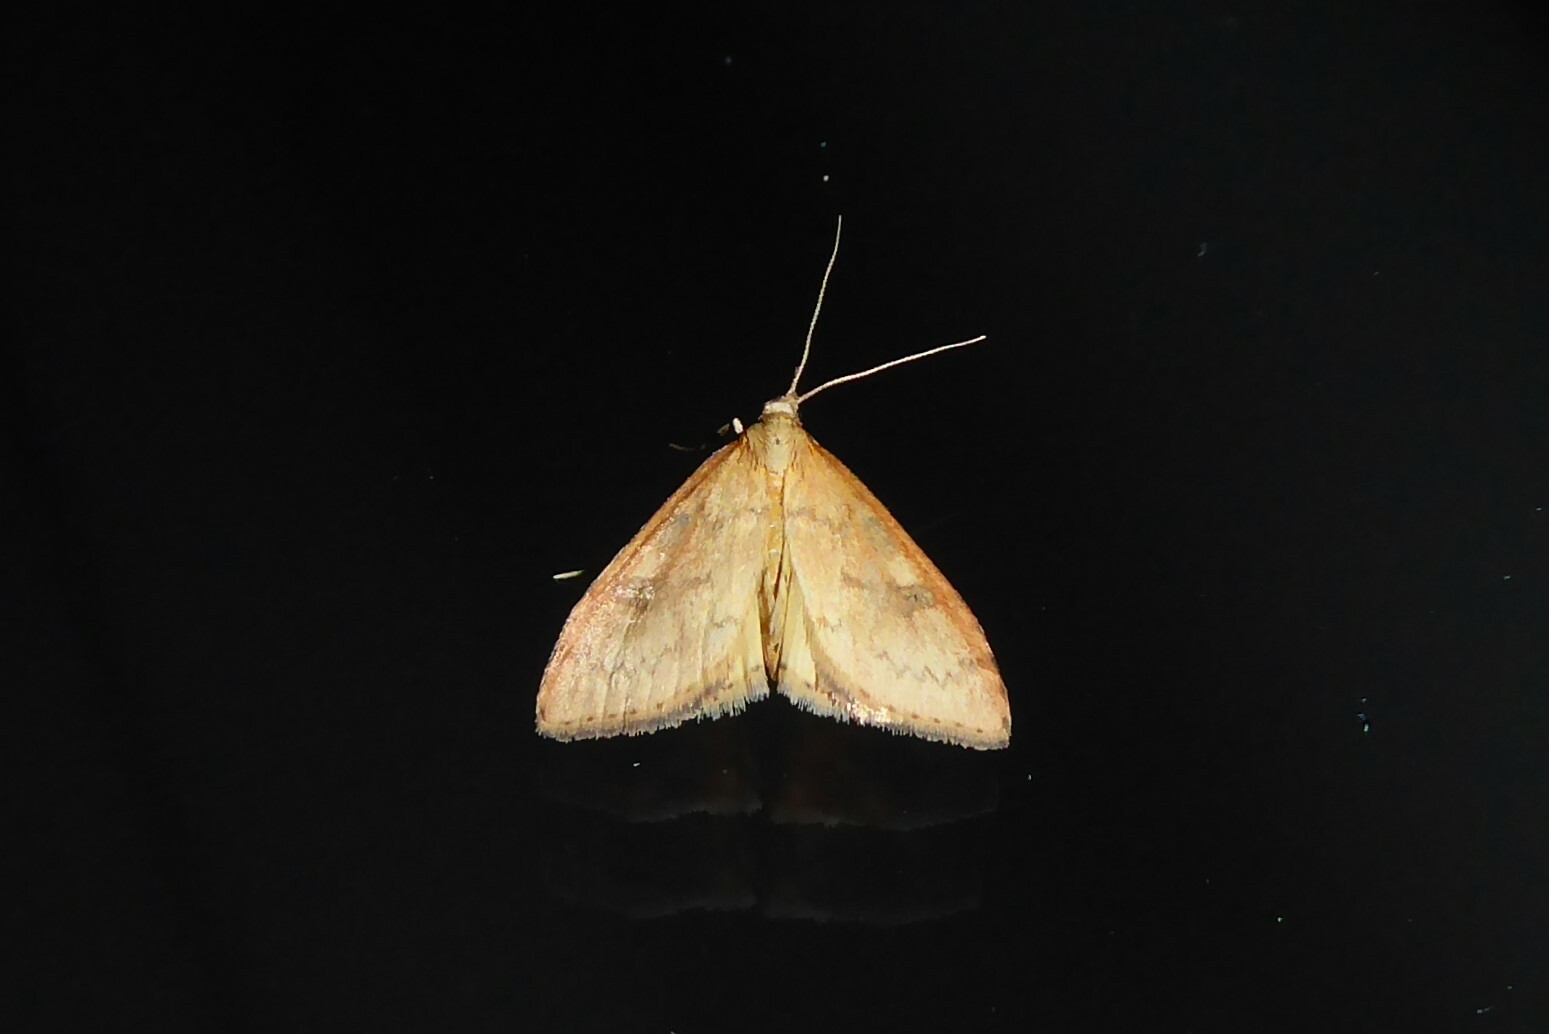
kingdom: Animalia
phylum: Arthropoda
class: Insecta
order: Lepidoptera
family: Crambidae
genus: Udea
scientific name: Udea Mnesictena flavidalis
